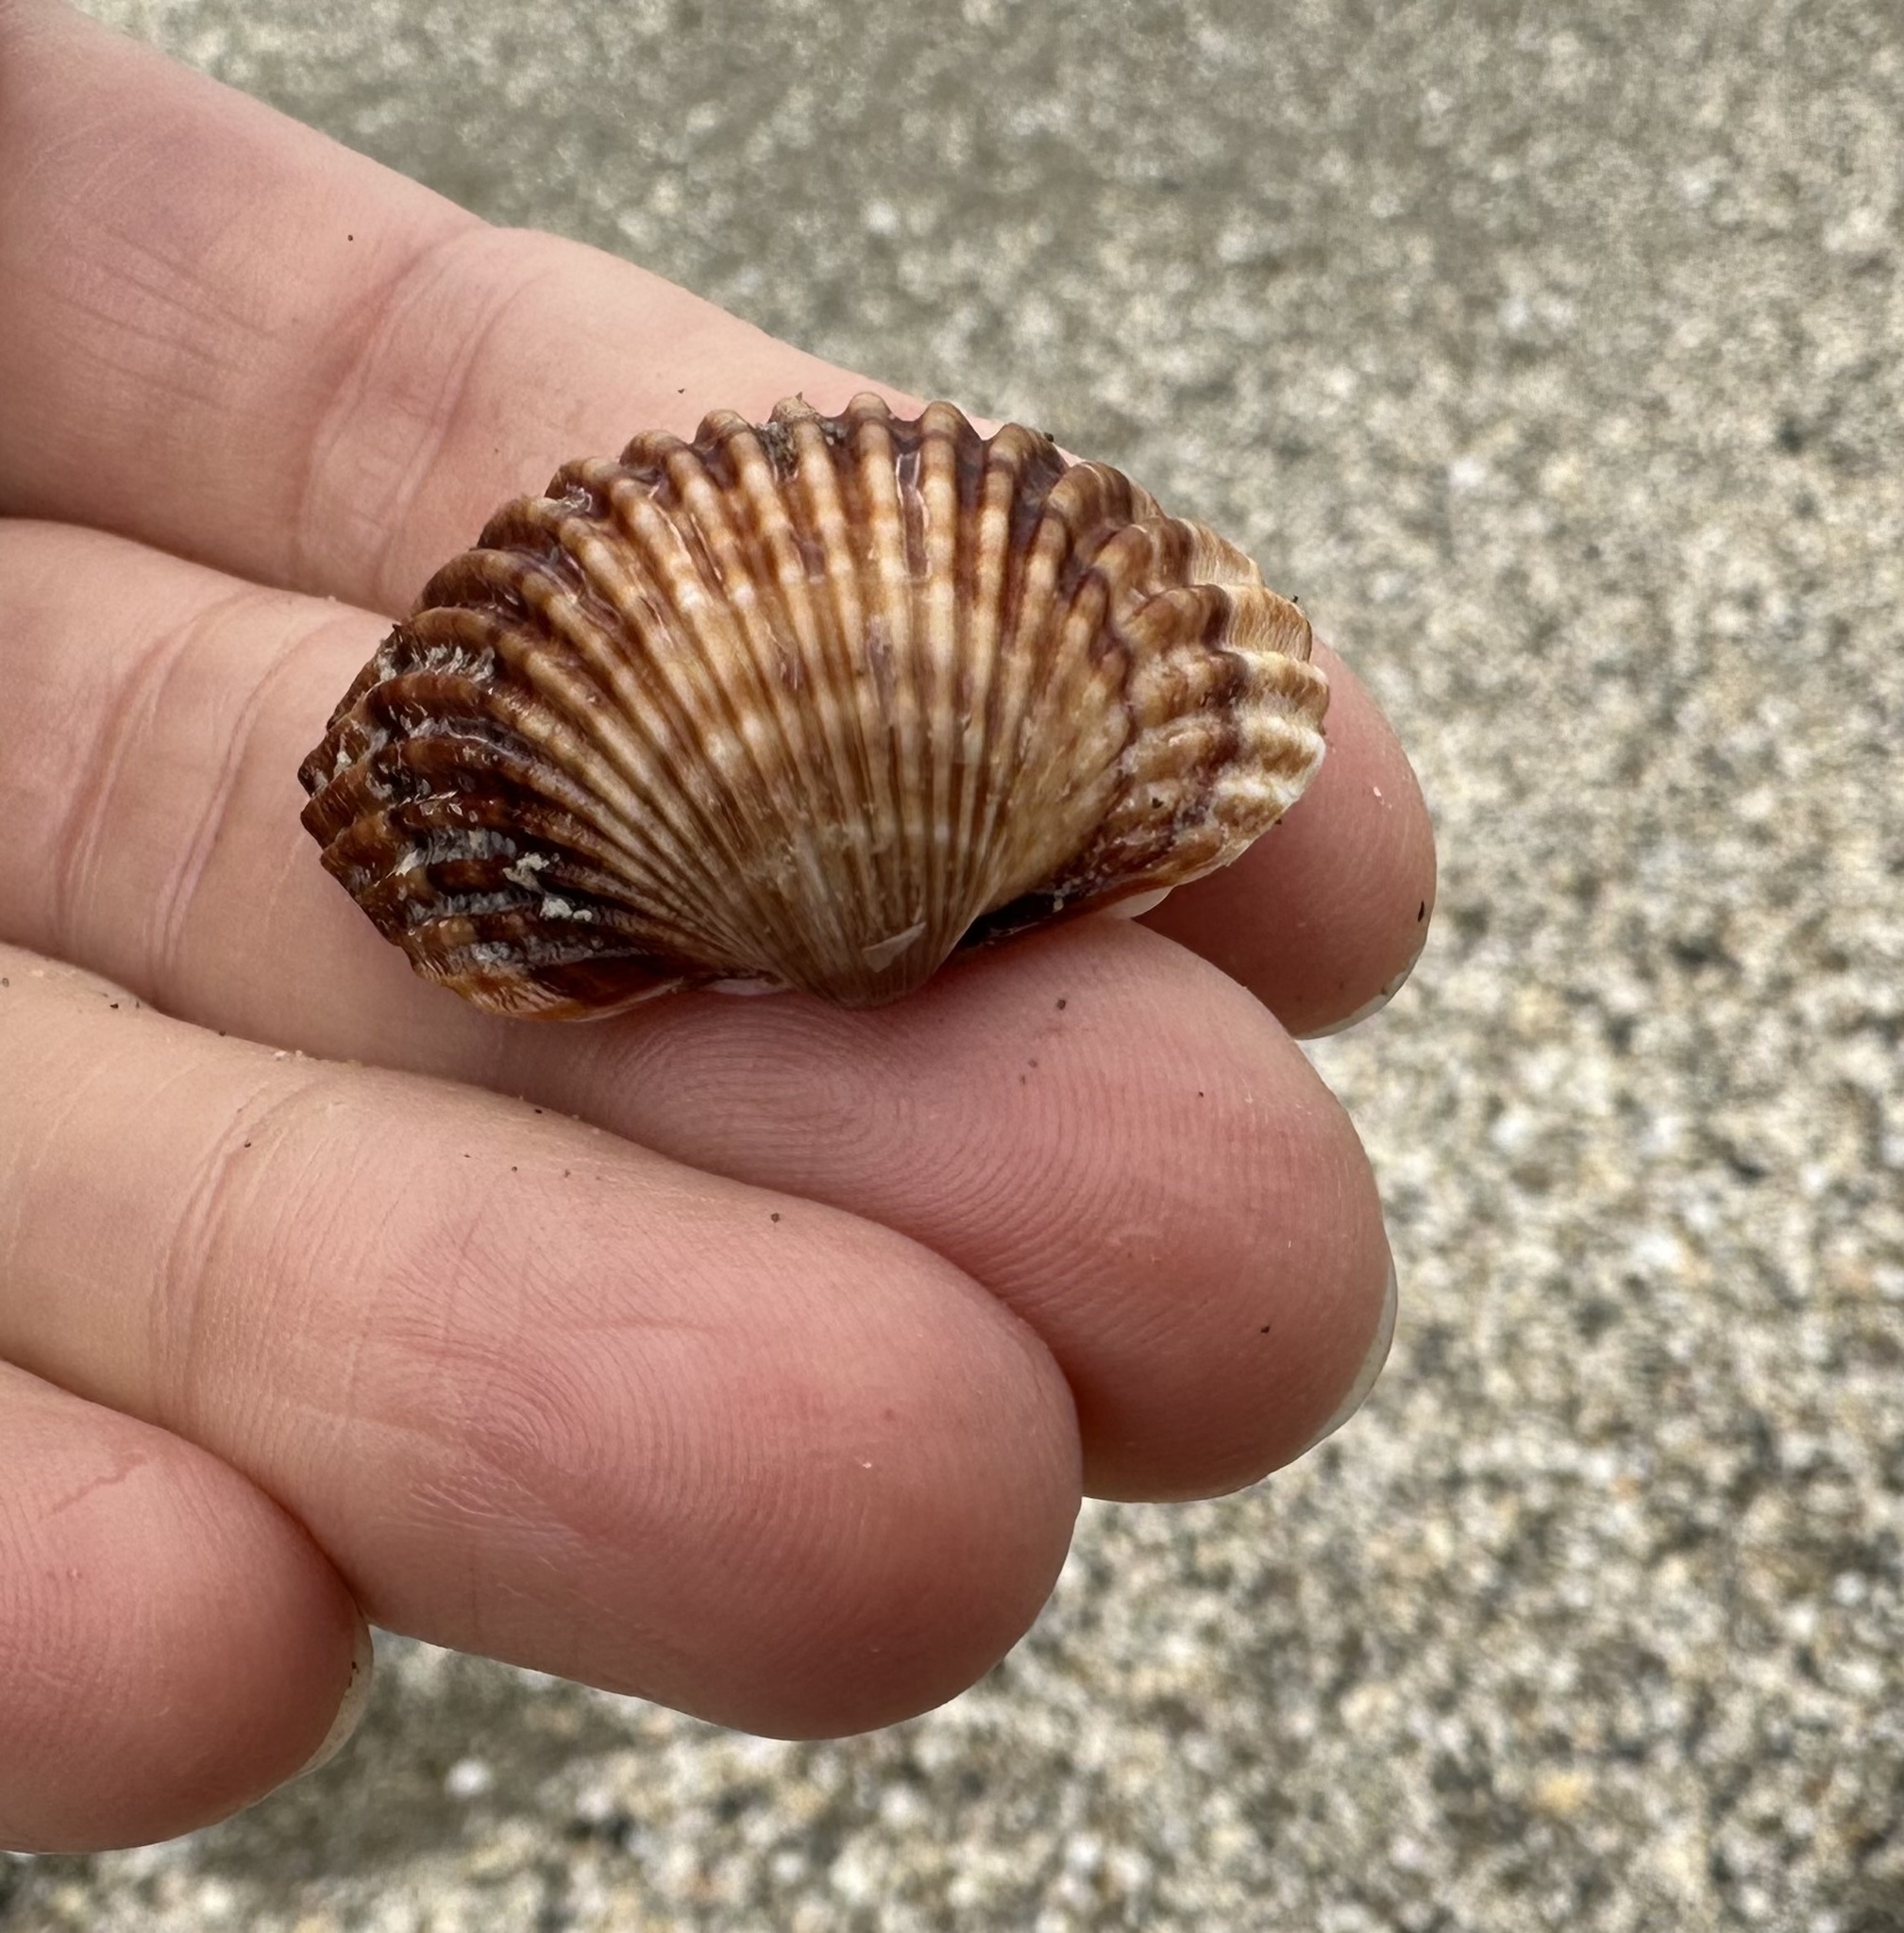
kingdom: Animalia
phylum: Mollusca
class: Bivalvia
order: Cardiida
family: Cardiidae
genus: Acanthocardia
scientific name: Acanthocardia tuberculata
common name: Rough cockle
